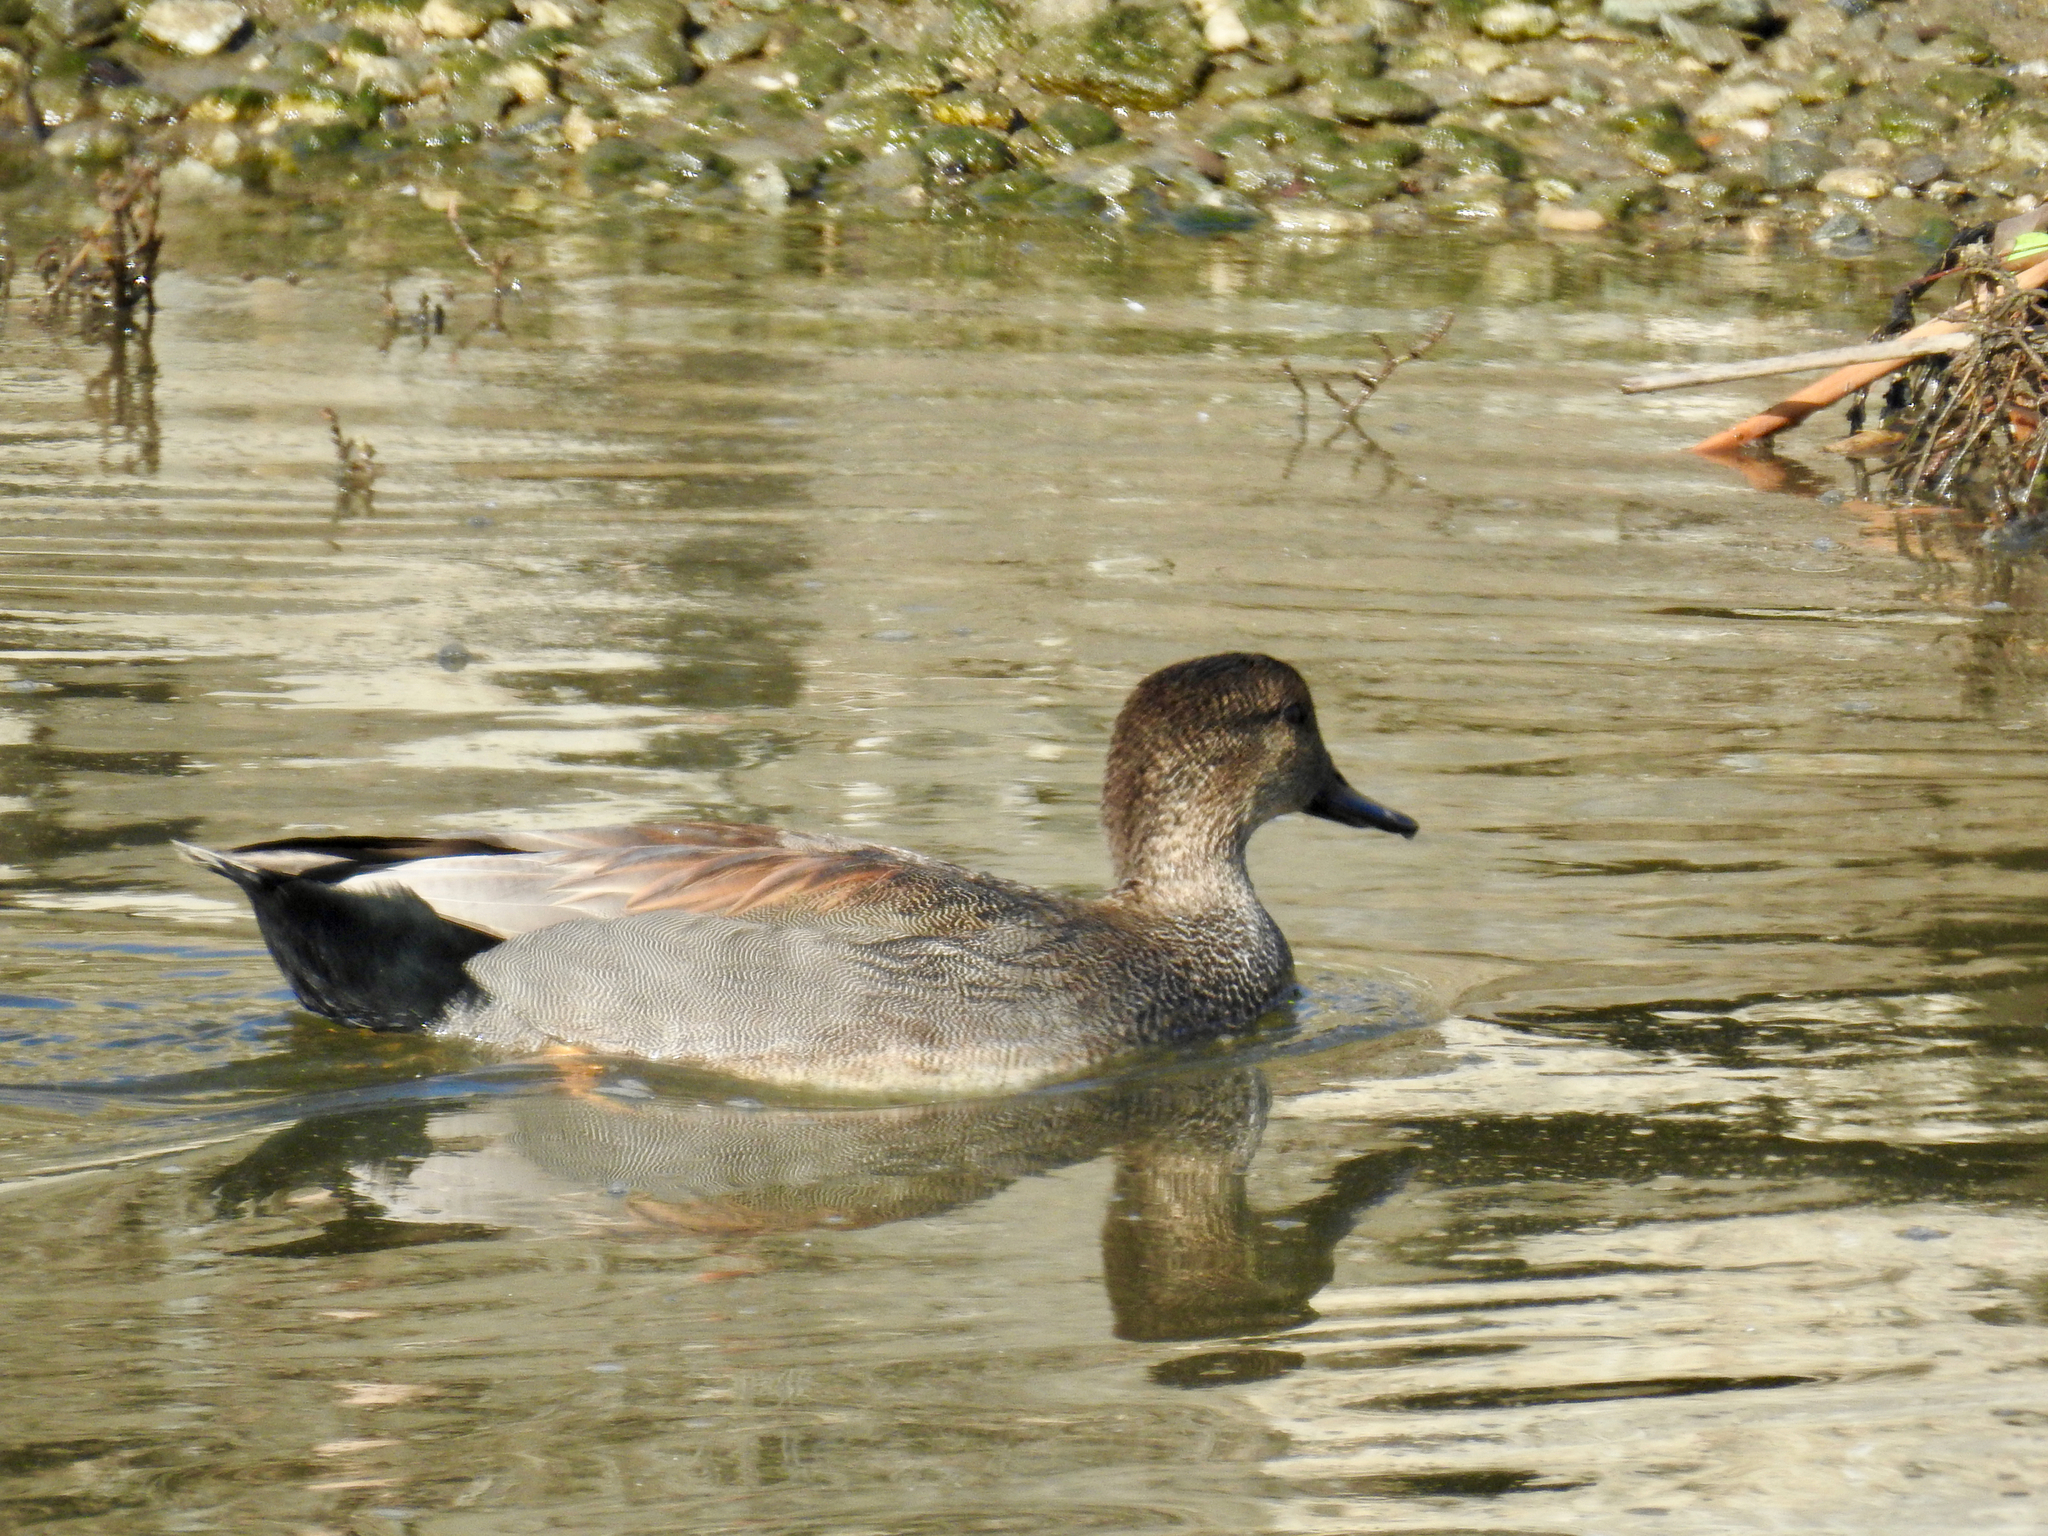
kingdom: Animalia
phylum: Chordata
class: Aves
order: Anseriformes
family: Anatidae
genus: Mareca
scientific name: Mareca strepera
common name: Gadwall
